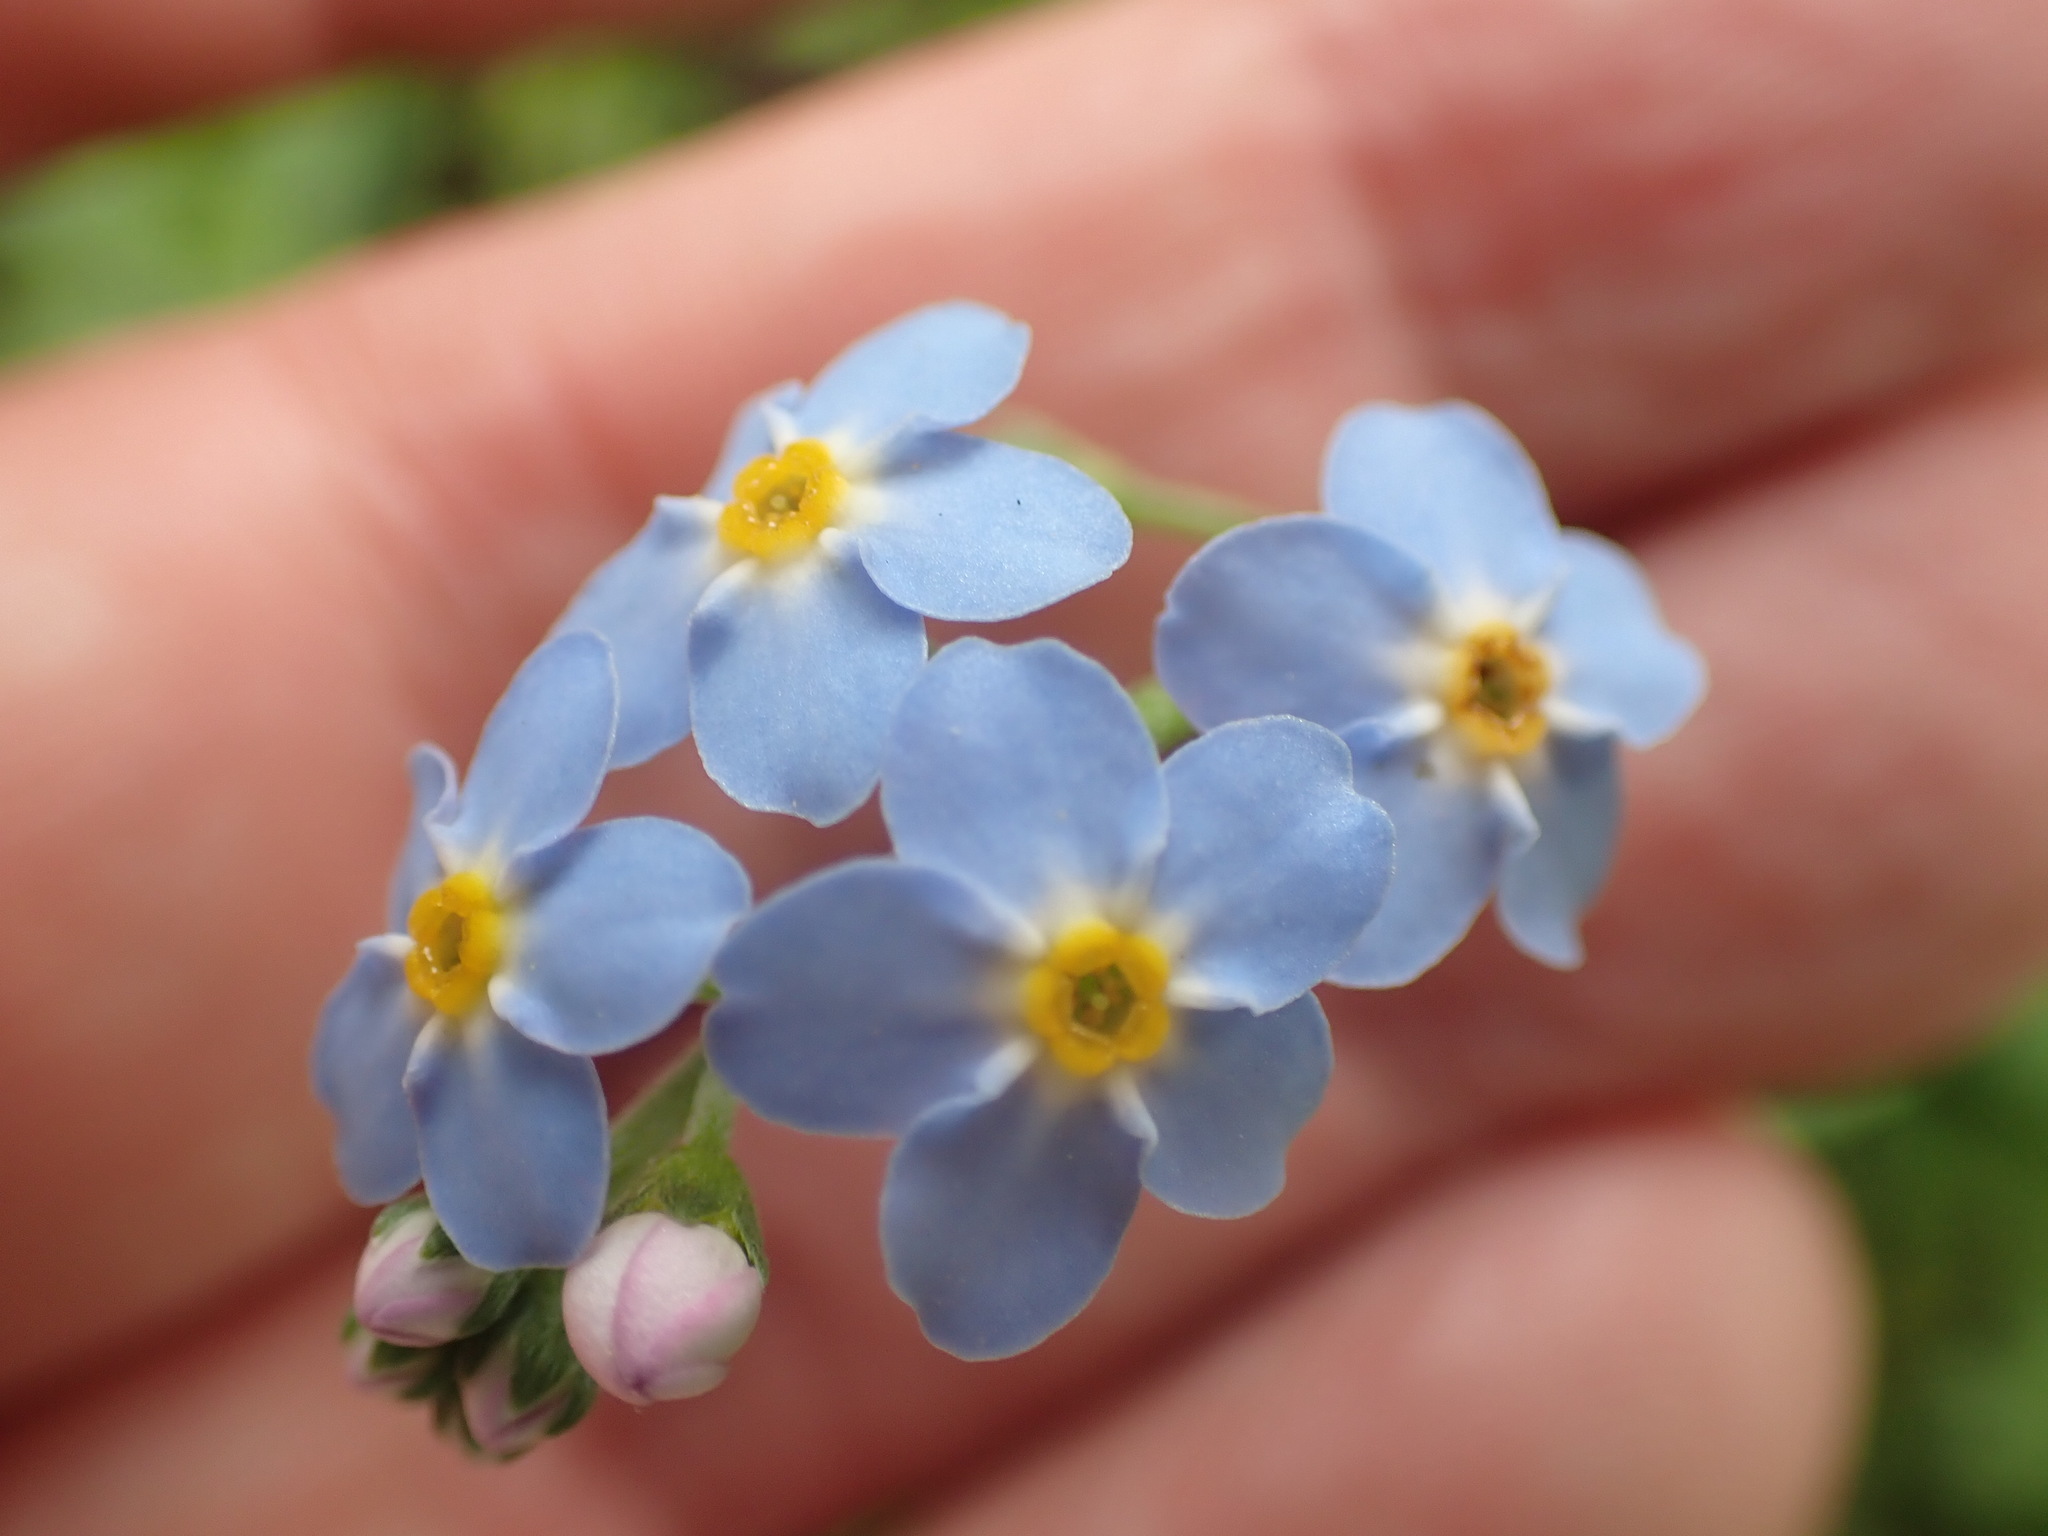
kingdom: Plantae
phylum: Tracheophyta
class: Magnoliopsida
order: Boraginales
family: Boraginaceae
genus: Myosotis
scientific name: Myosotis scorpioides
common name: Water forget-me-not
